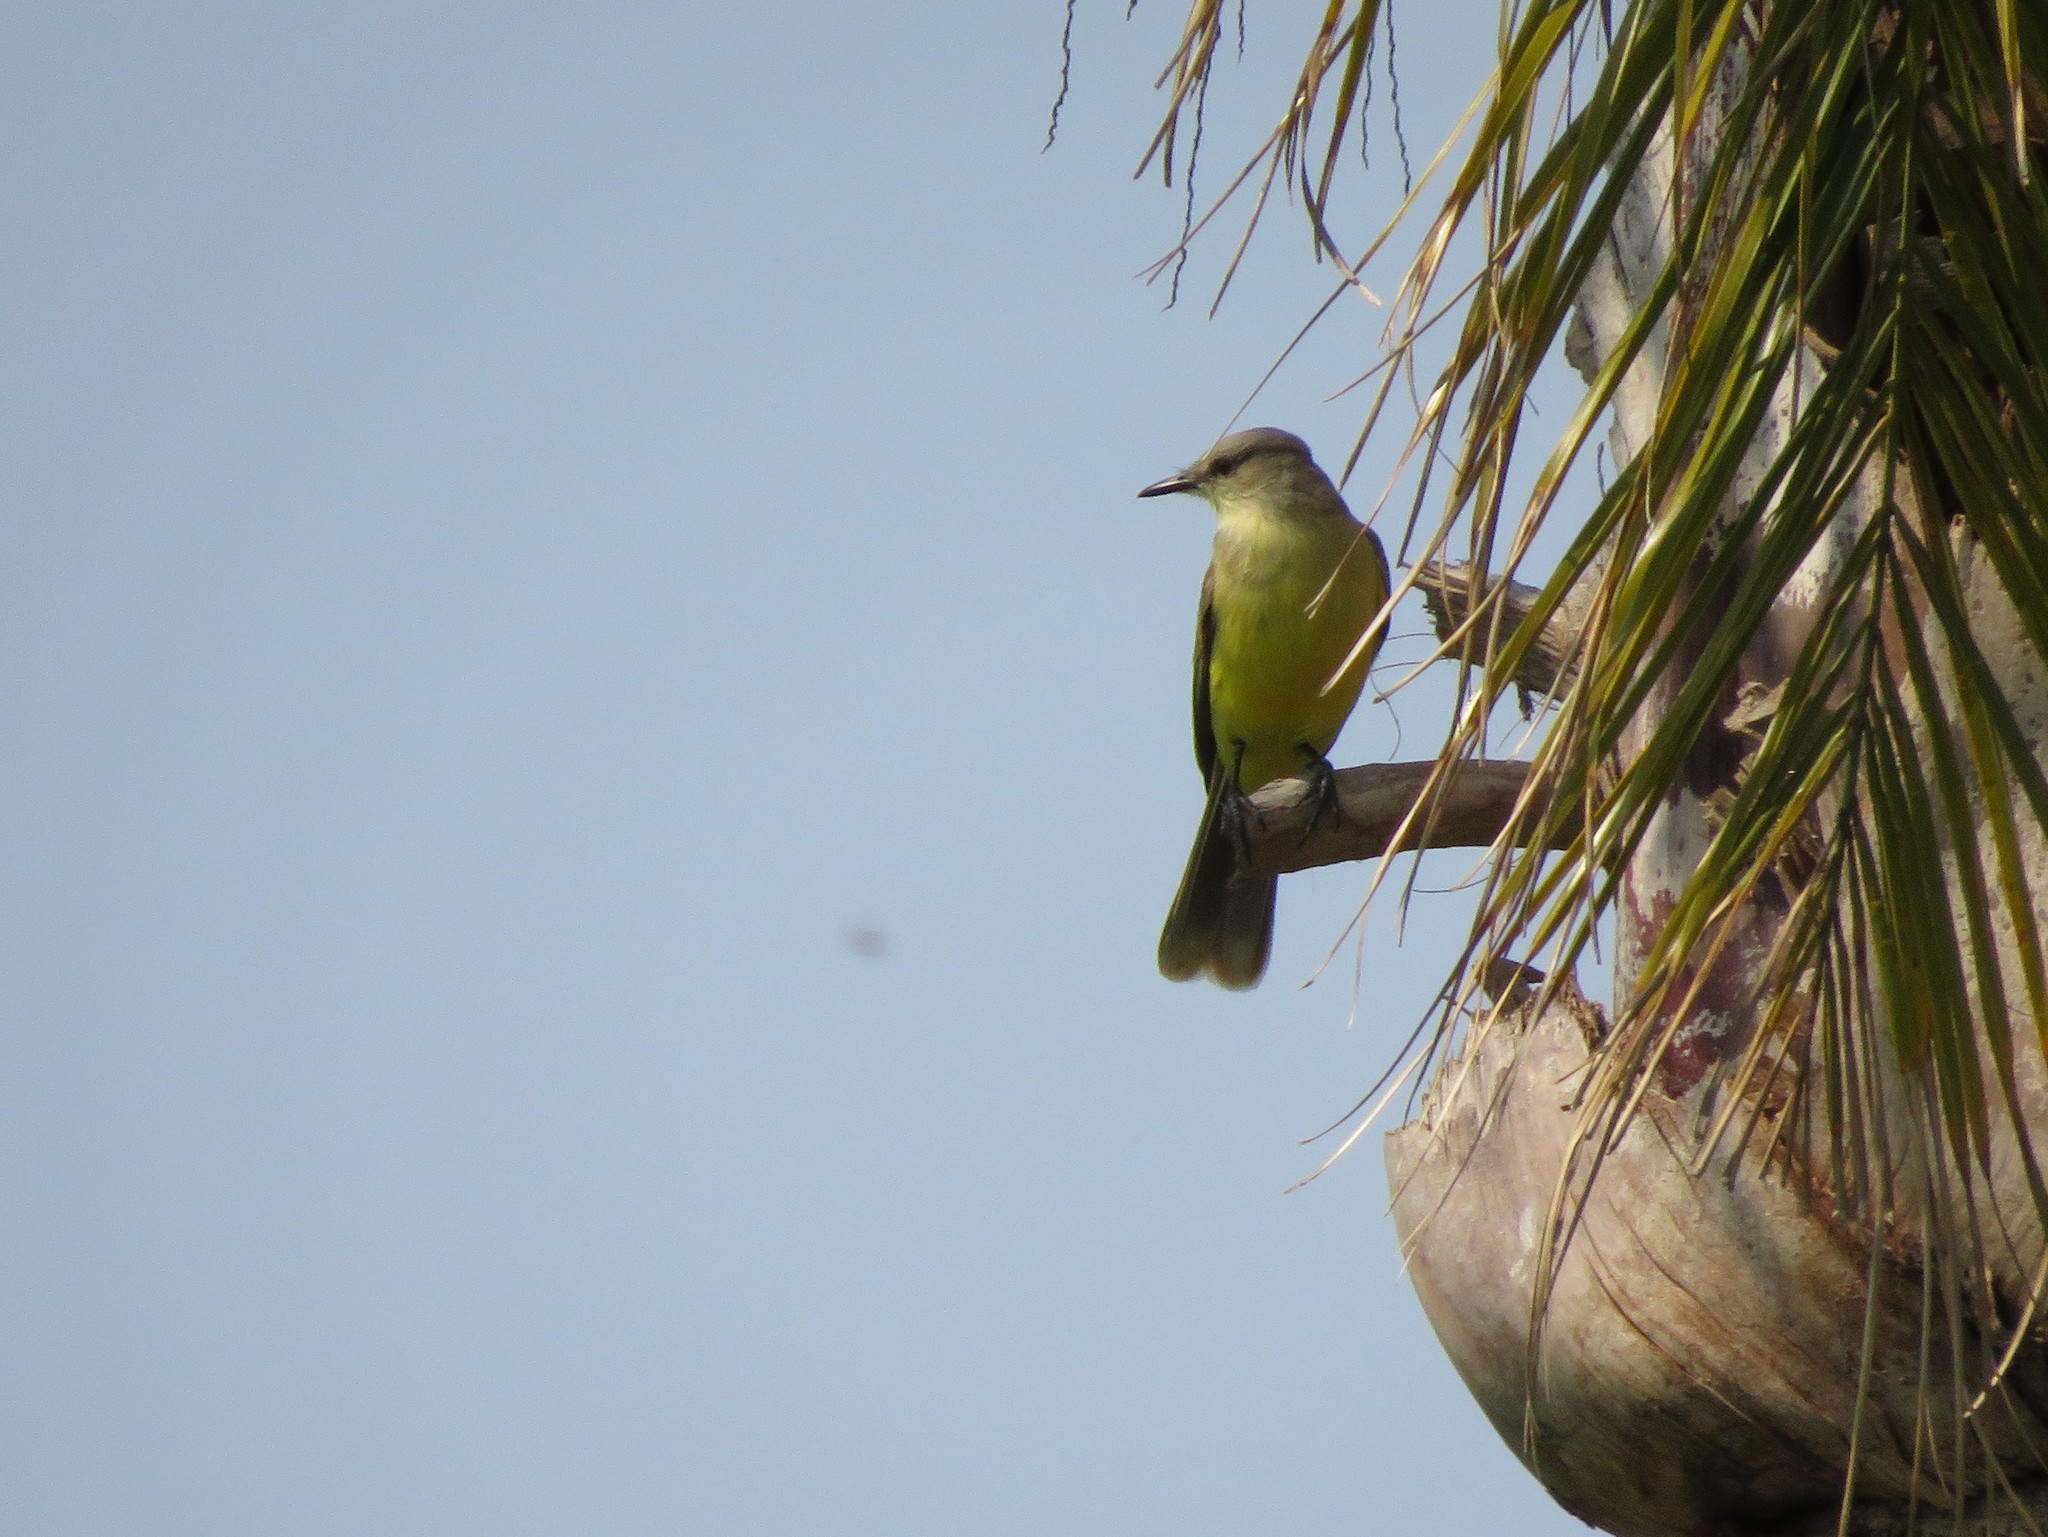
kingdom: Animalia
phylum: Chordata
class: Aves
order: Passeriformes
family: Tyrannidae
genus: Machetornis
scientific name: Machetornis rixosa
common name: Cattle tyrant
